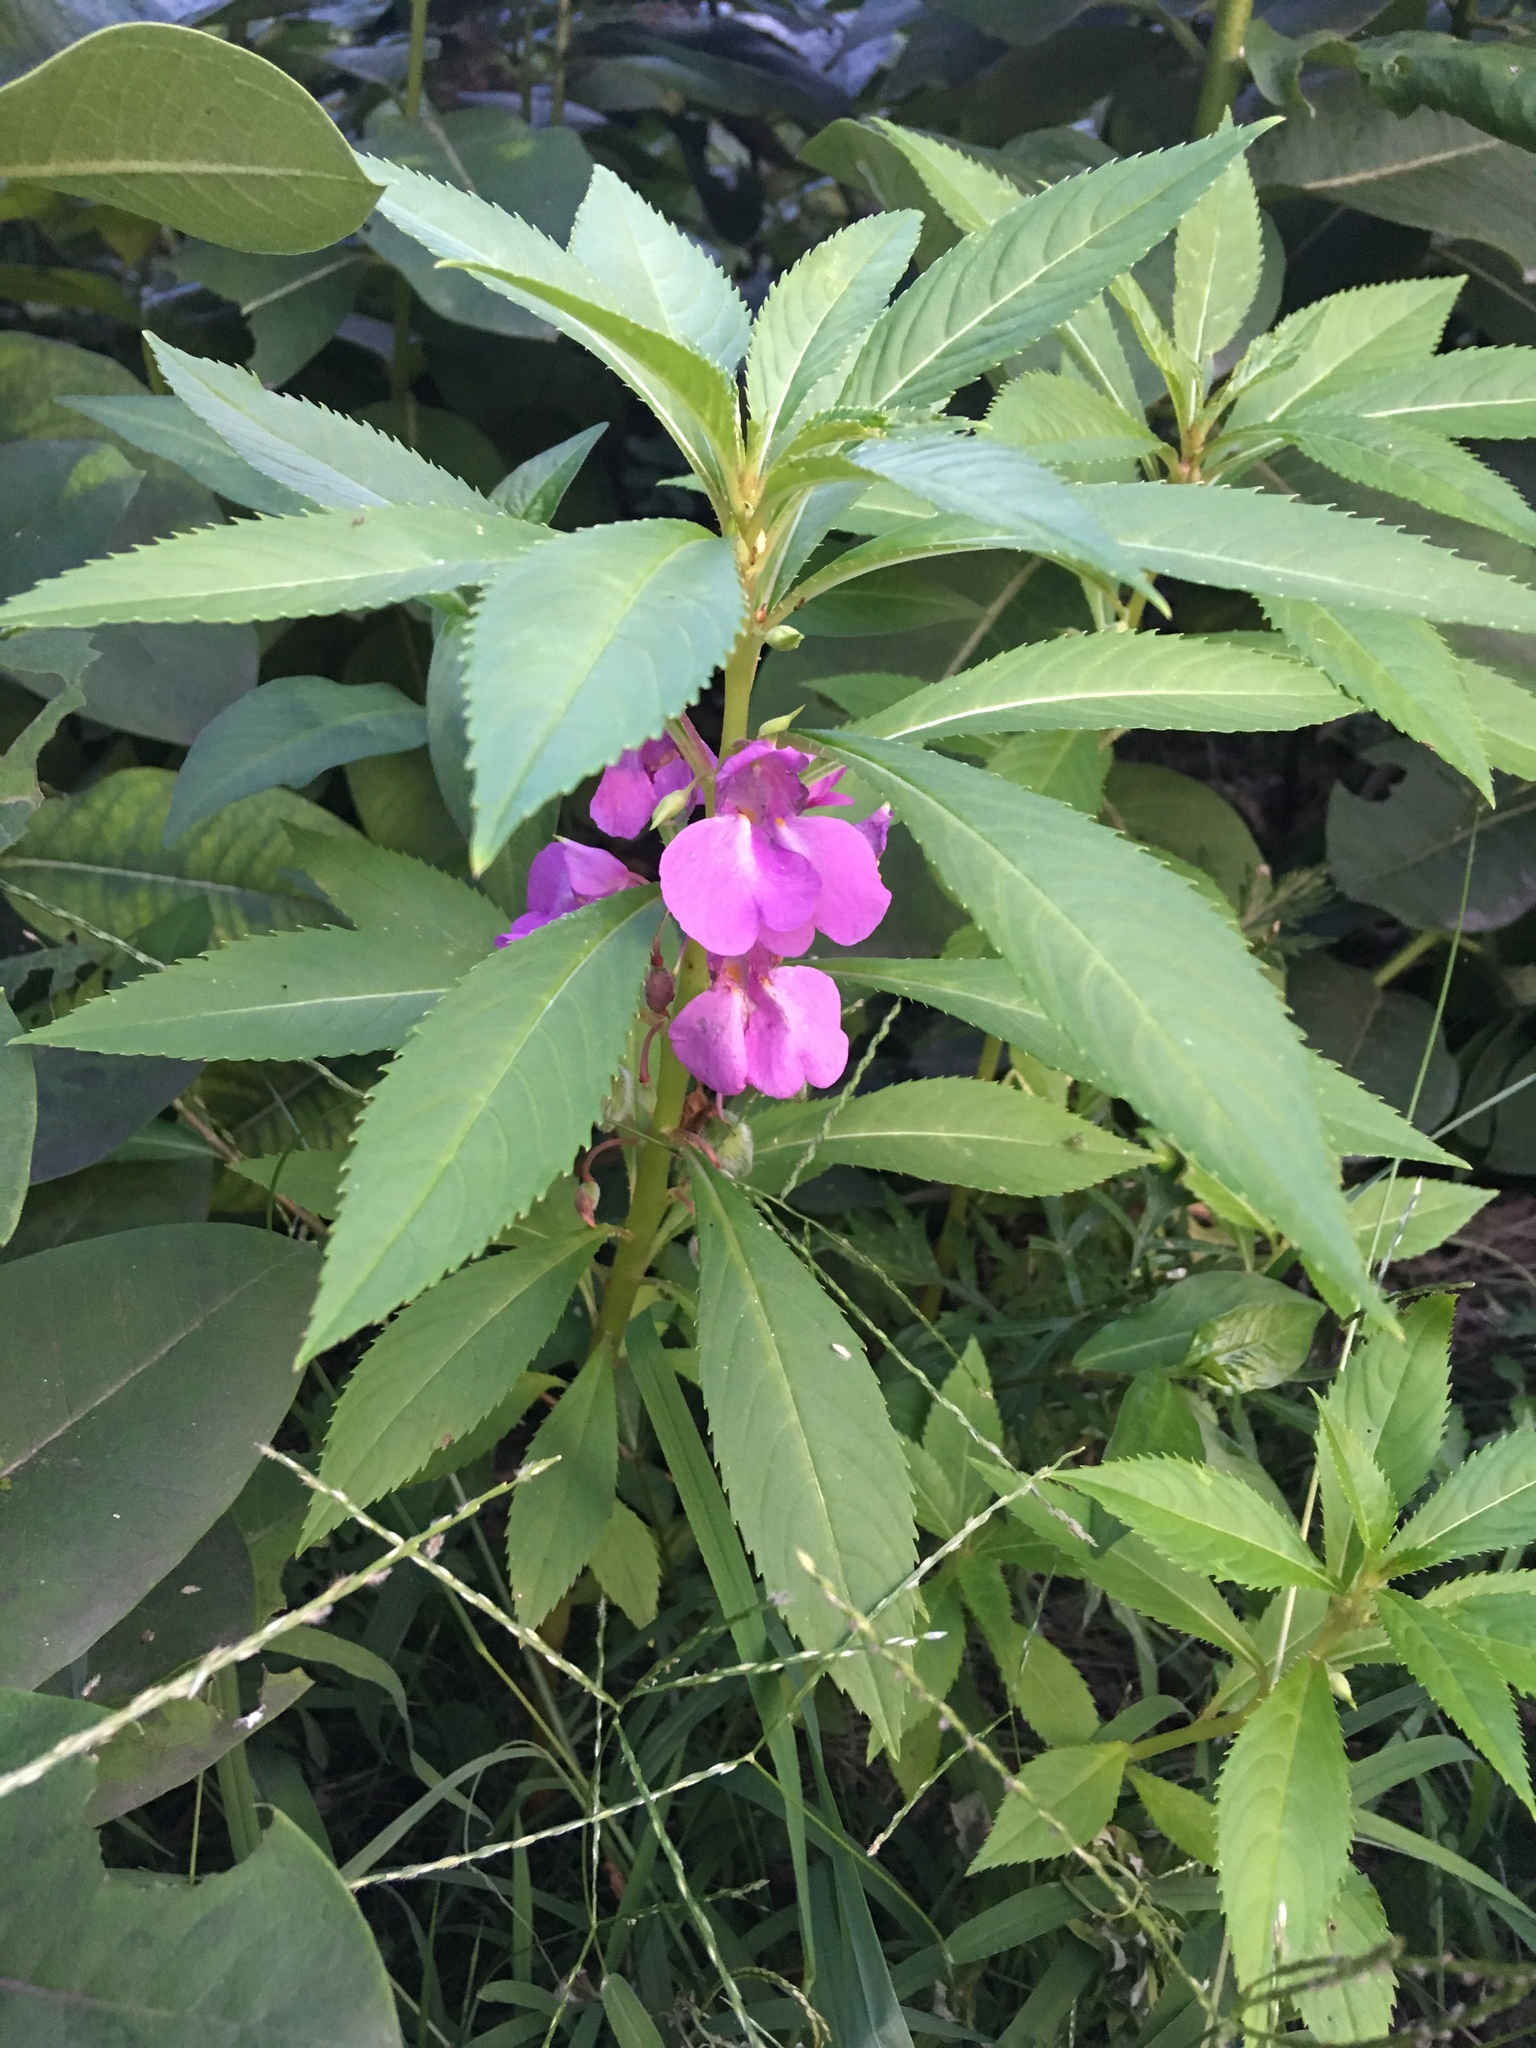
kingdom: Plantae
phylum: Tracheophyta
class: Magnoliopsida
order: Ericales
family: Balsaminaceae
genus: Impatiens
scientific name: Impatiens balsamina
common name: Balsam
